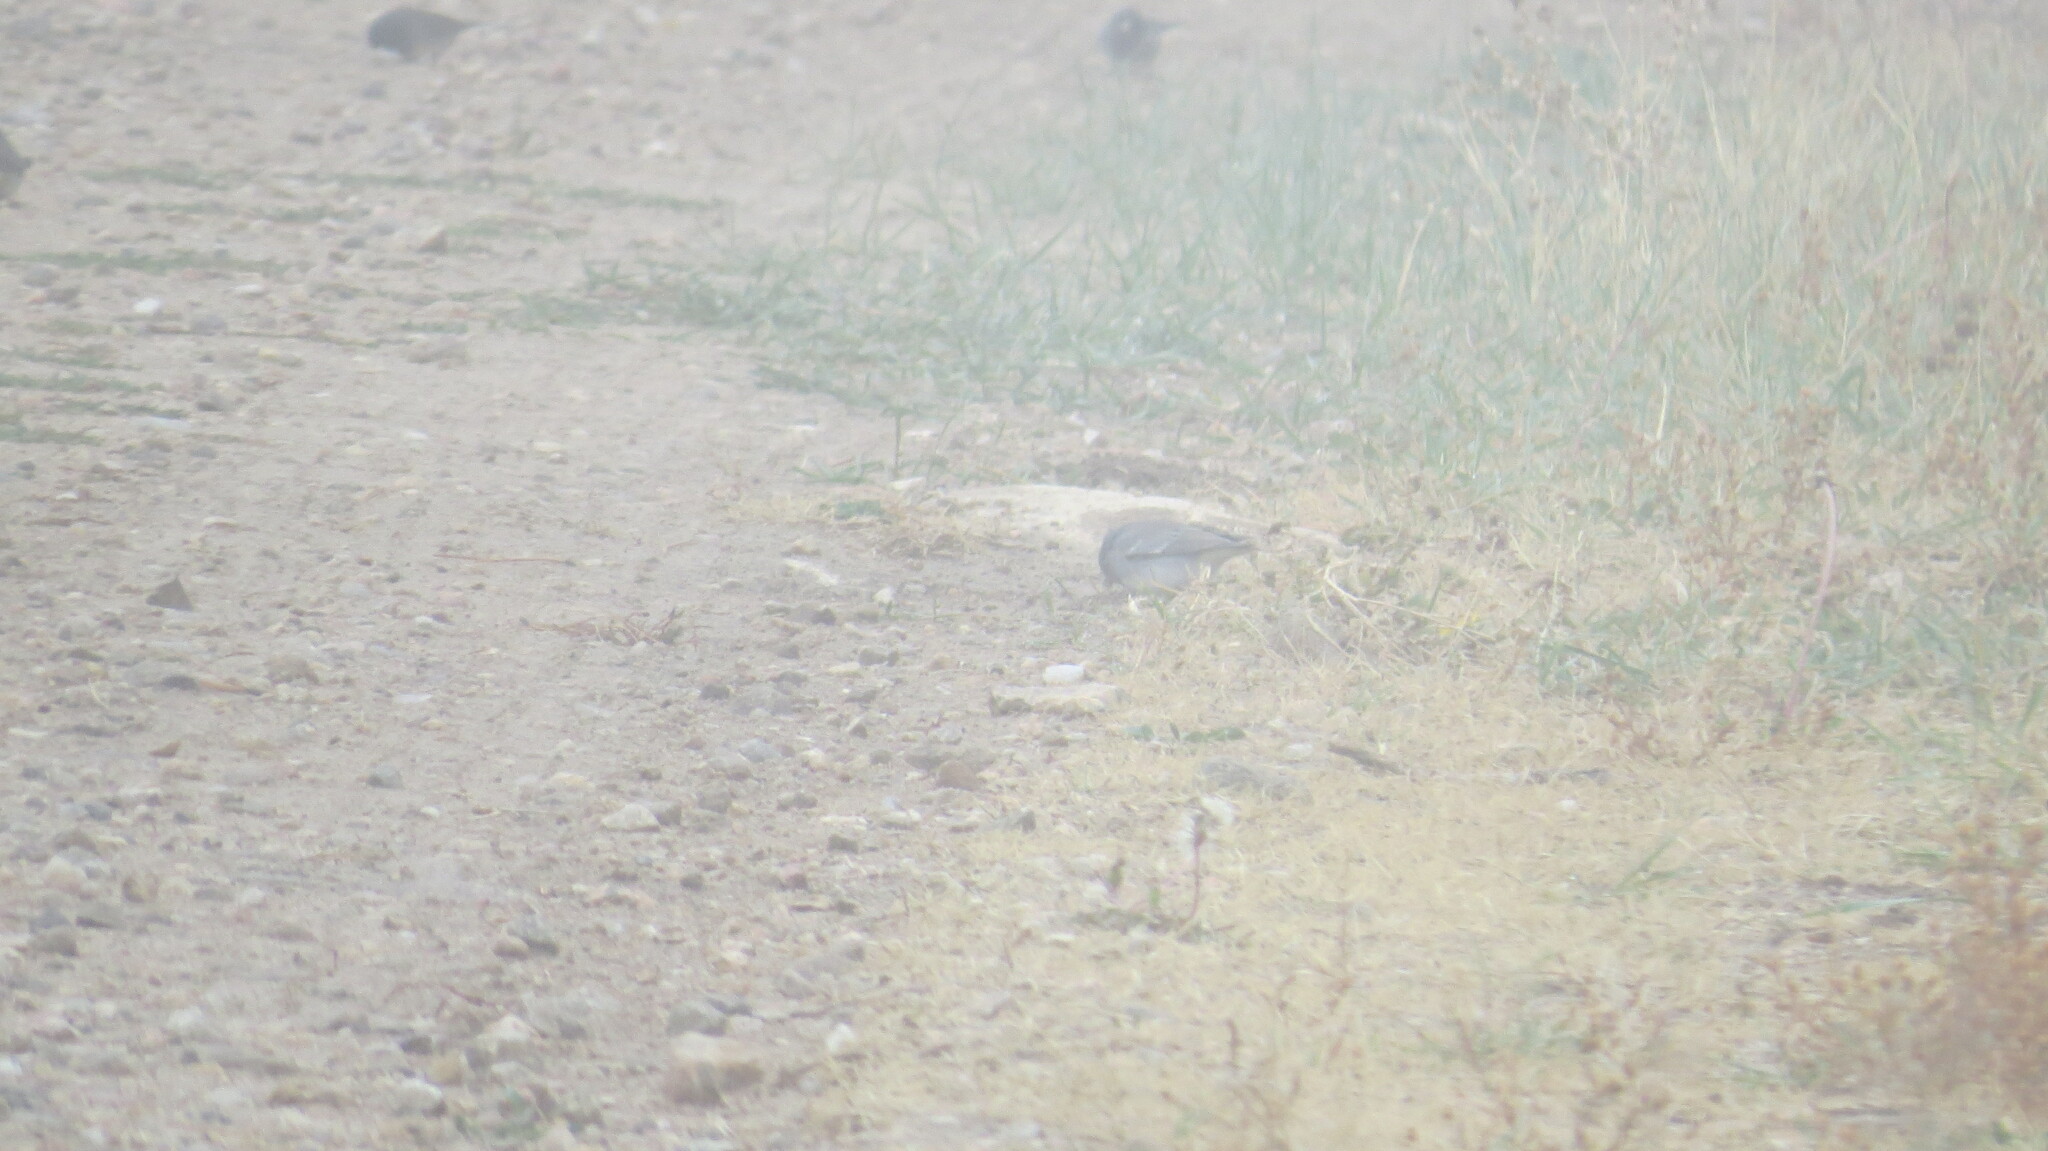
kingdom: Animalia
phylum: Chordata
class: Aves
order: Passeriformes
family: Passerellidae
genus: Junco
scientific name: Junco hyemalis
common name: Dark-eyed junco
